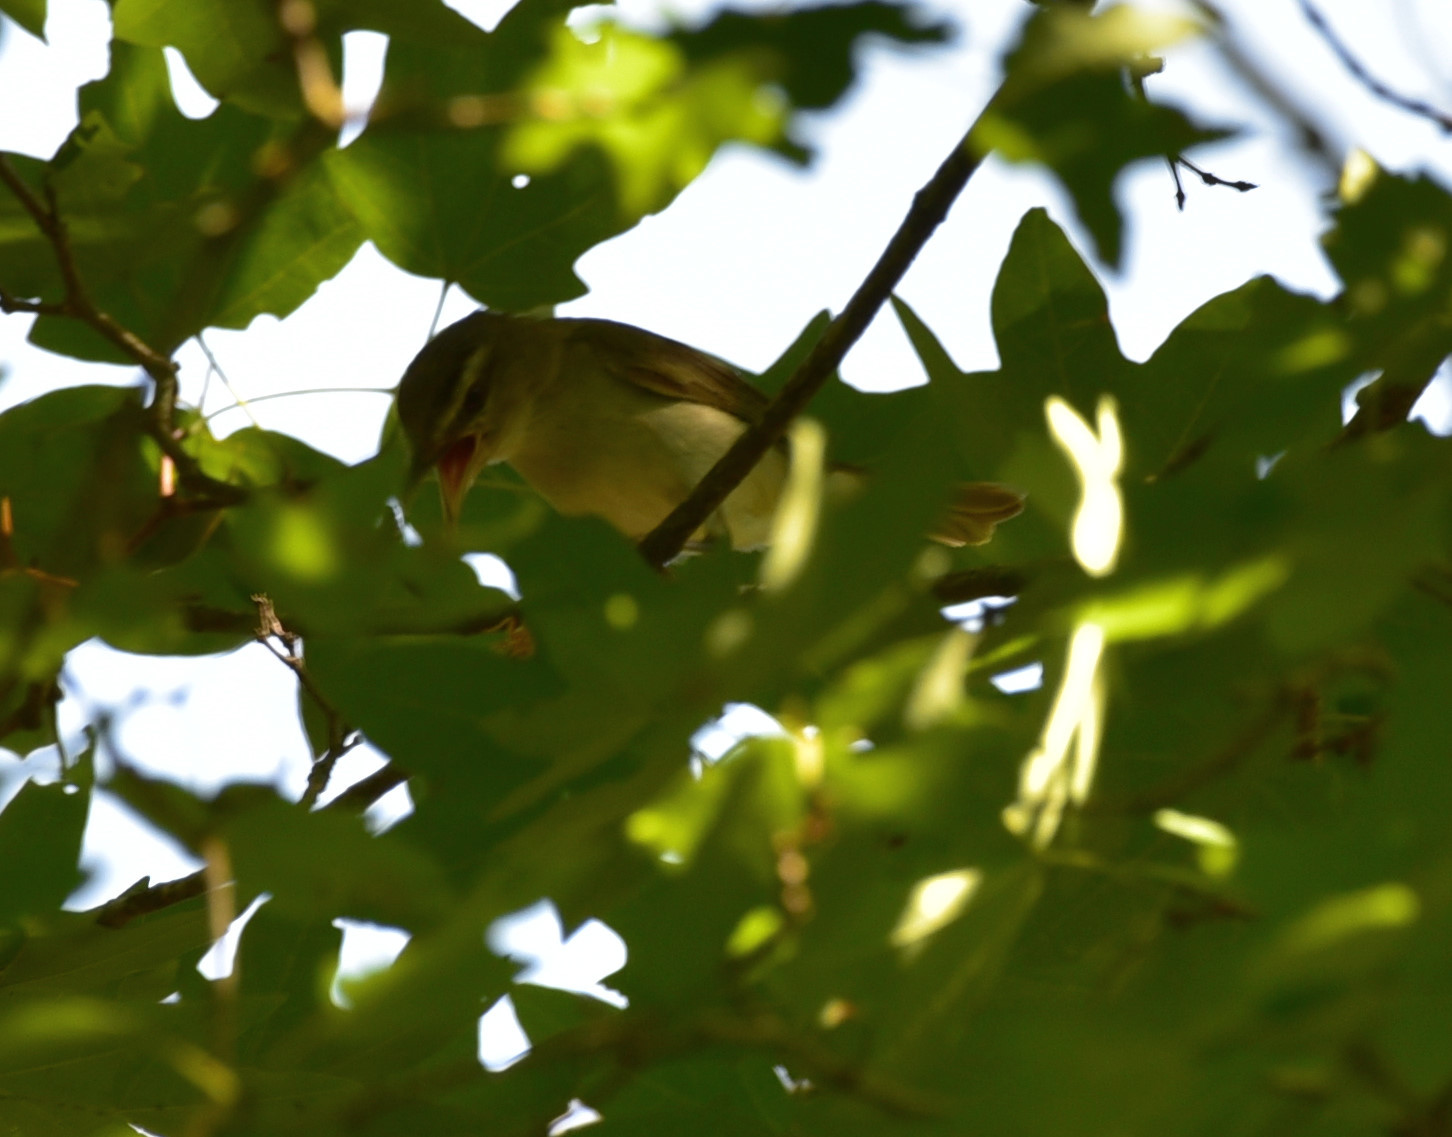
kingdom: Animalia
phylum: Chordata
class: Aves
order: Passeriformes
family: Vireonidae
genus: Vireo
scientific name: Vireo olivaceus
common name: Red-eyed vireo
